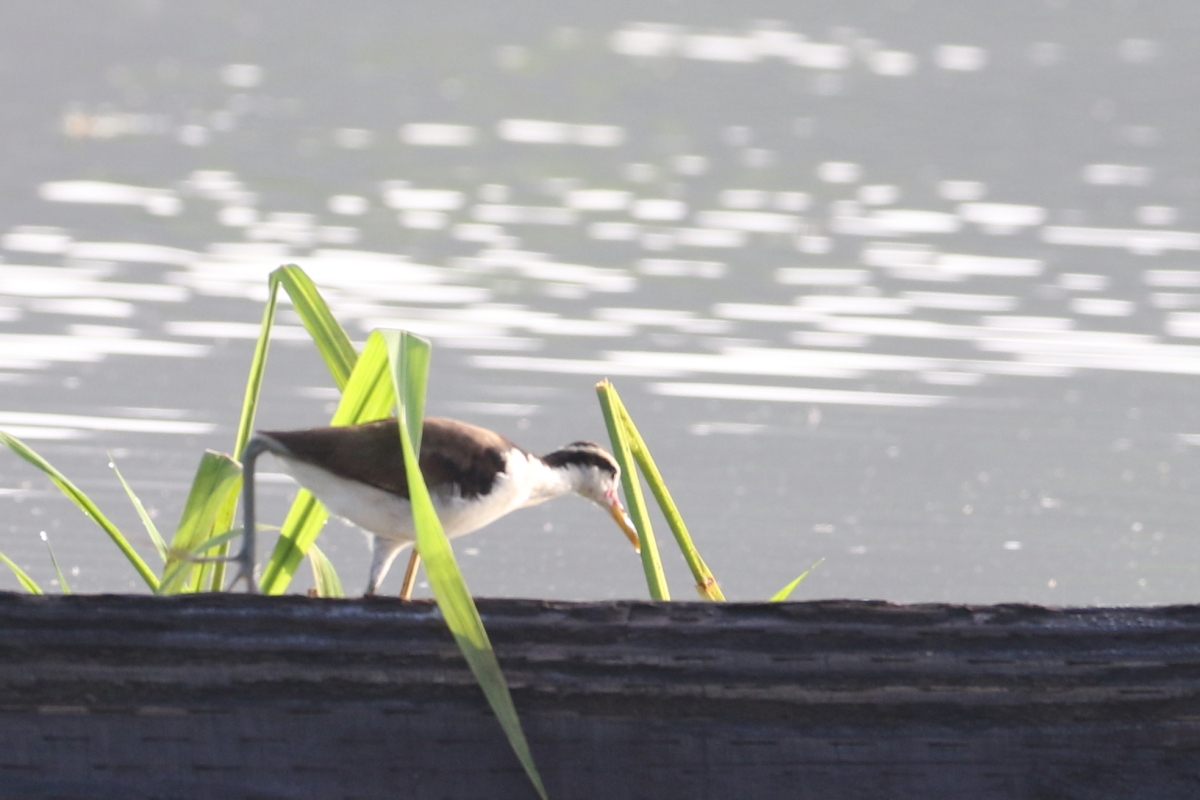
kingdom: Animalia
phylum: Chordata
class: Aves
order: Charadriiformes
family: Jacanidae
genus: Jacana
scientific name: Jacana jacana
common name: Wattled jacana
